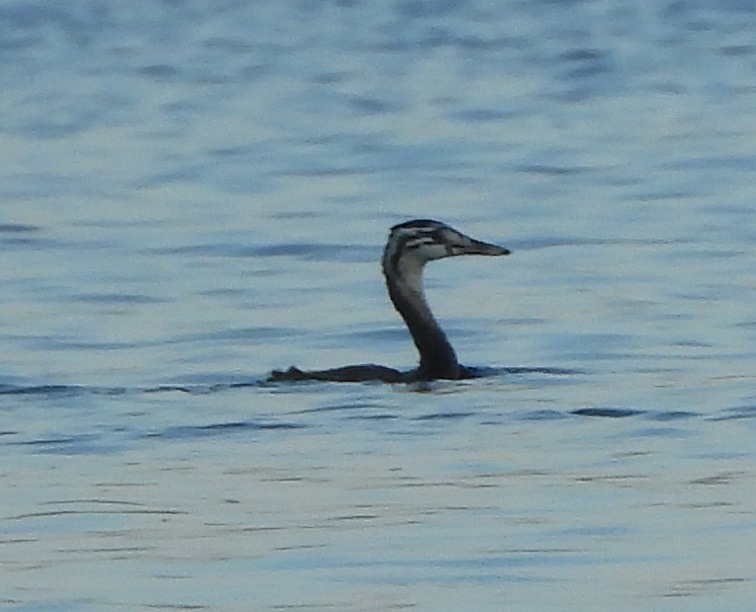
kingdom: Animalia
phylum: Chordata
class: Aves
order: Podicipediformes
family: Podicipedidae
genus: Podiceps
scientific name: Podiceps cristatus
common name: Great crested grebe
